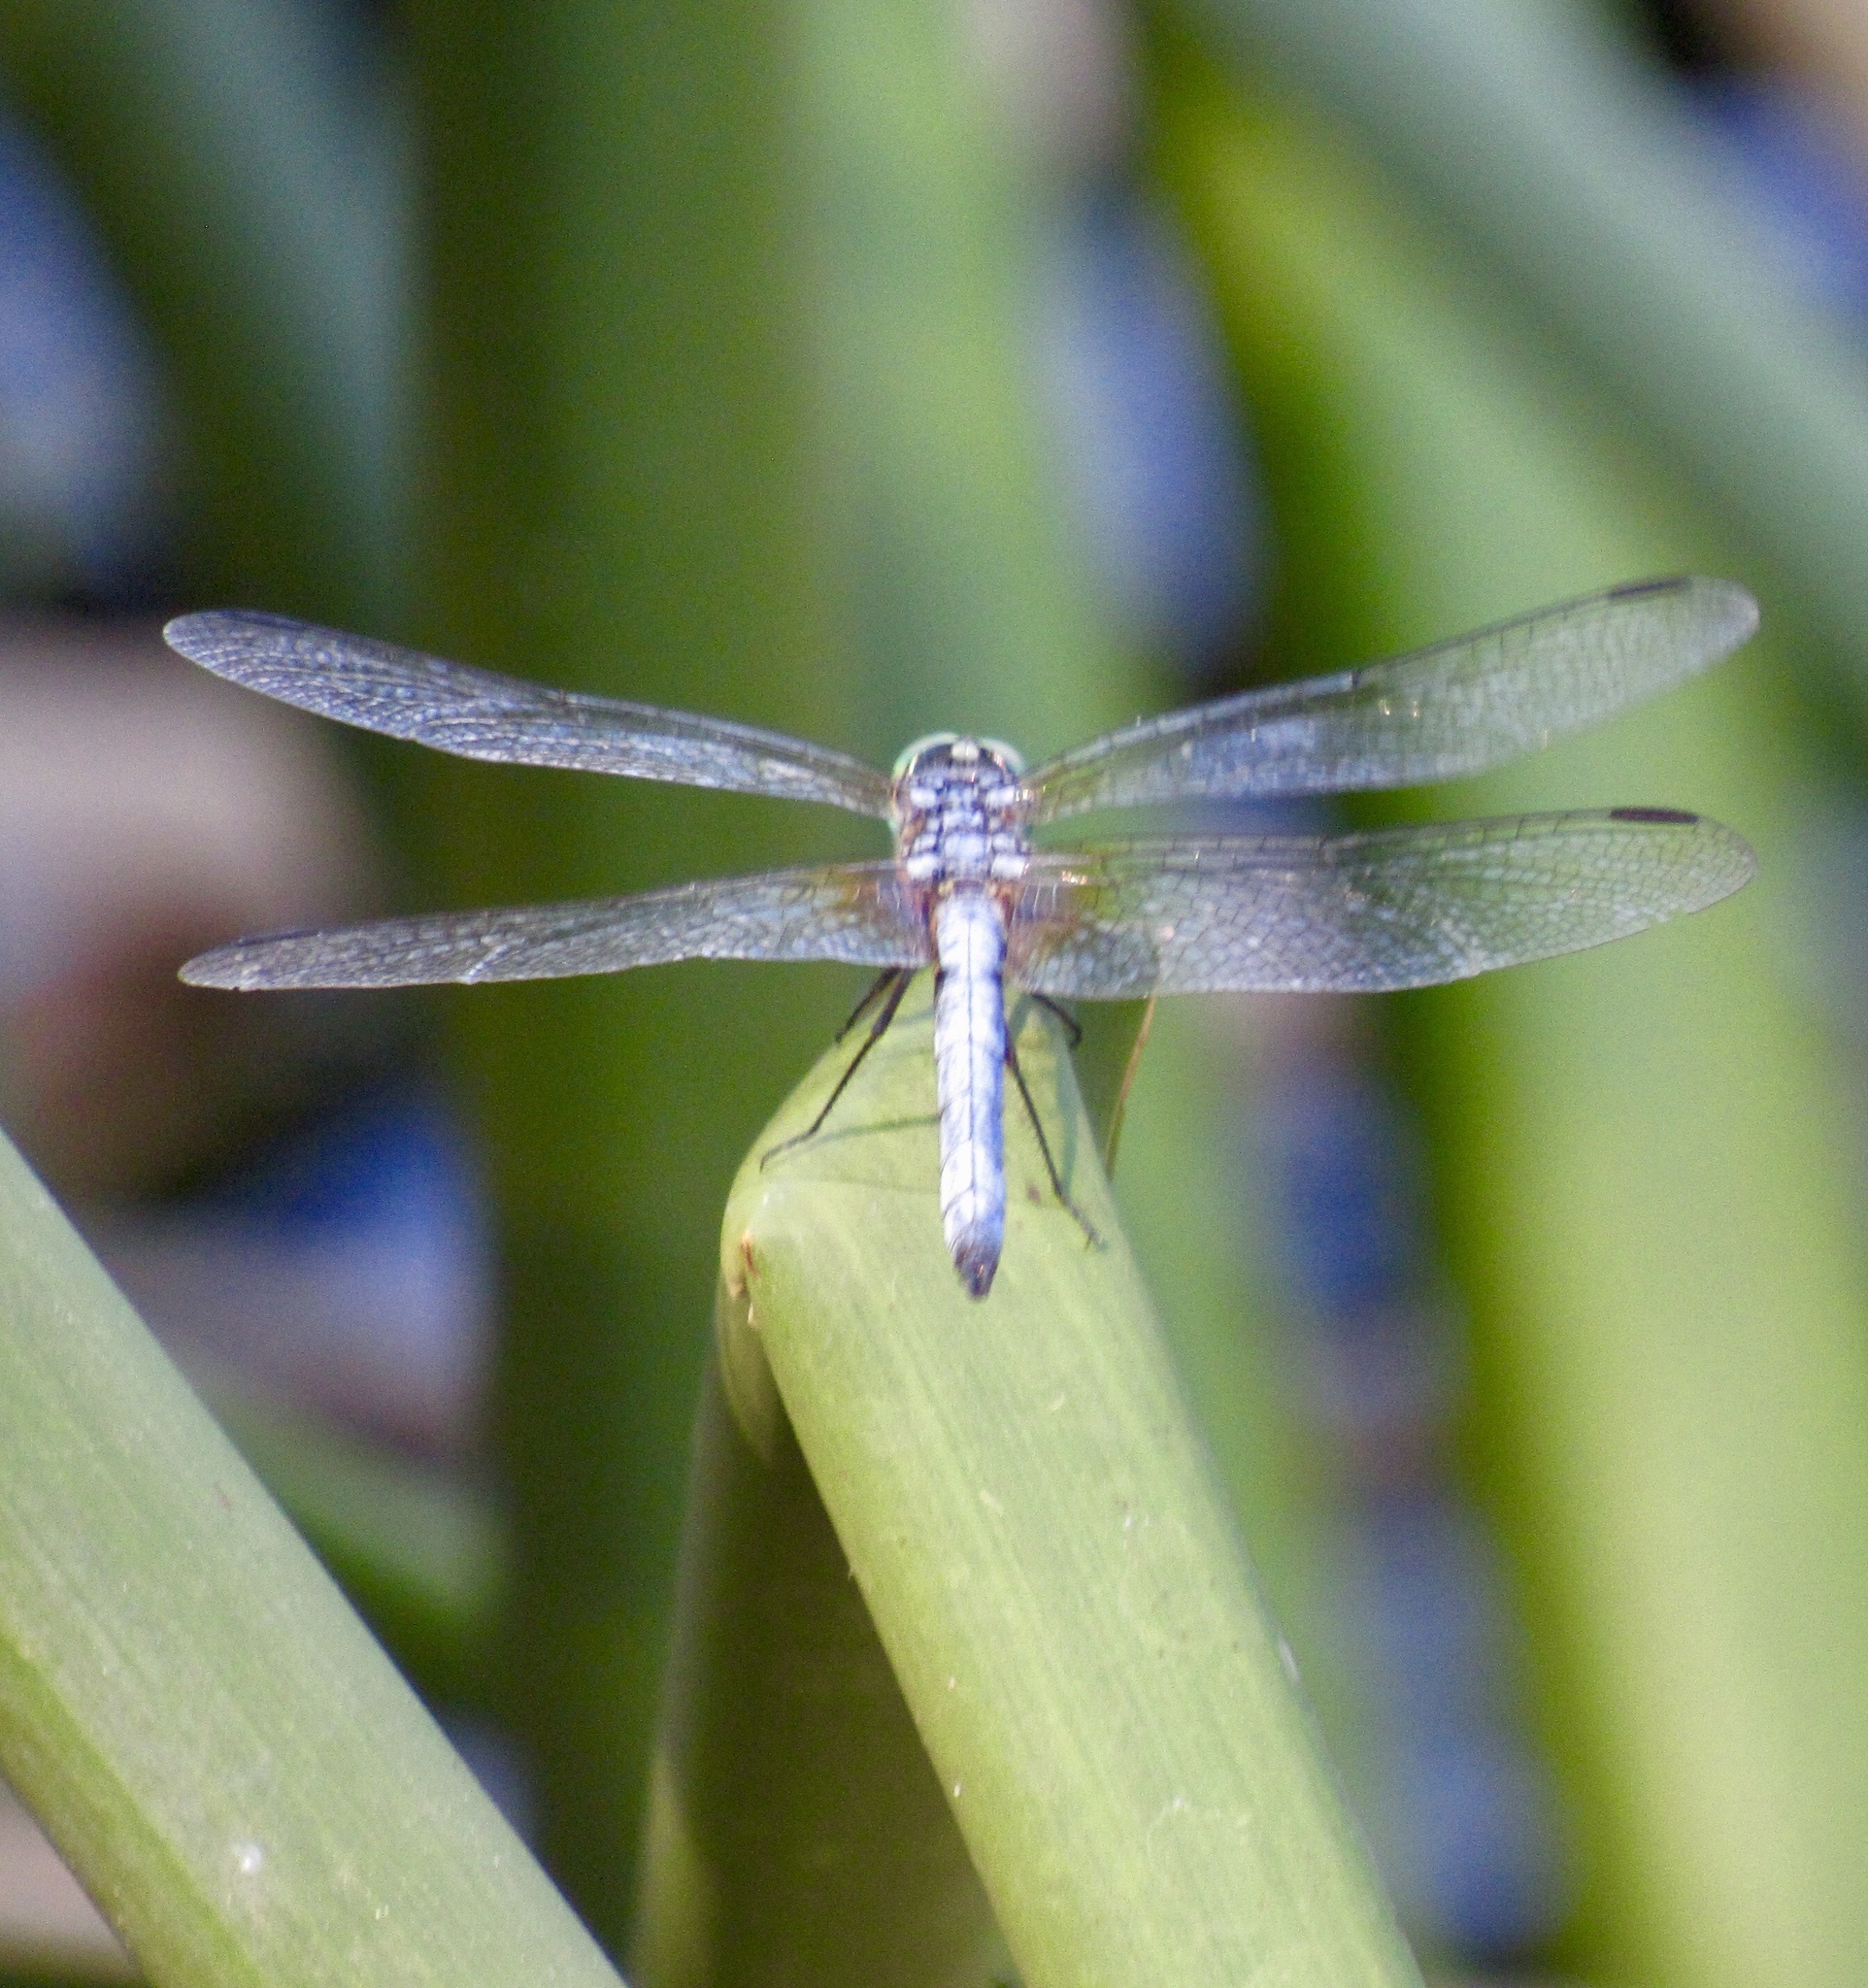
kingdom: Animalia
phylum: Arthropoda
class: Insecta
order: Odonata
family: Libellulidae
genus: Pachydiplax
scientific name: Pachydiplax longipennis
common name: Blue dasher
